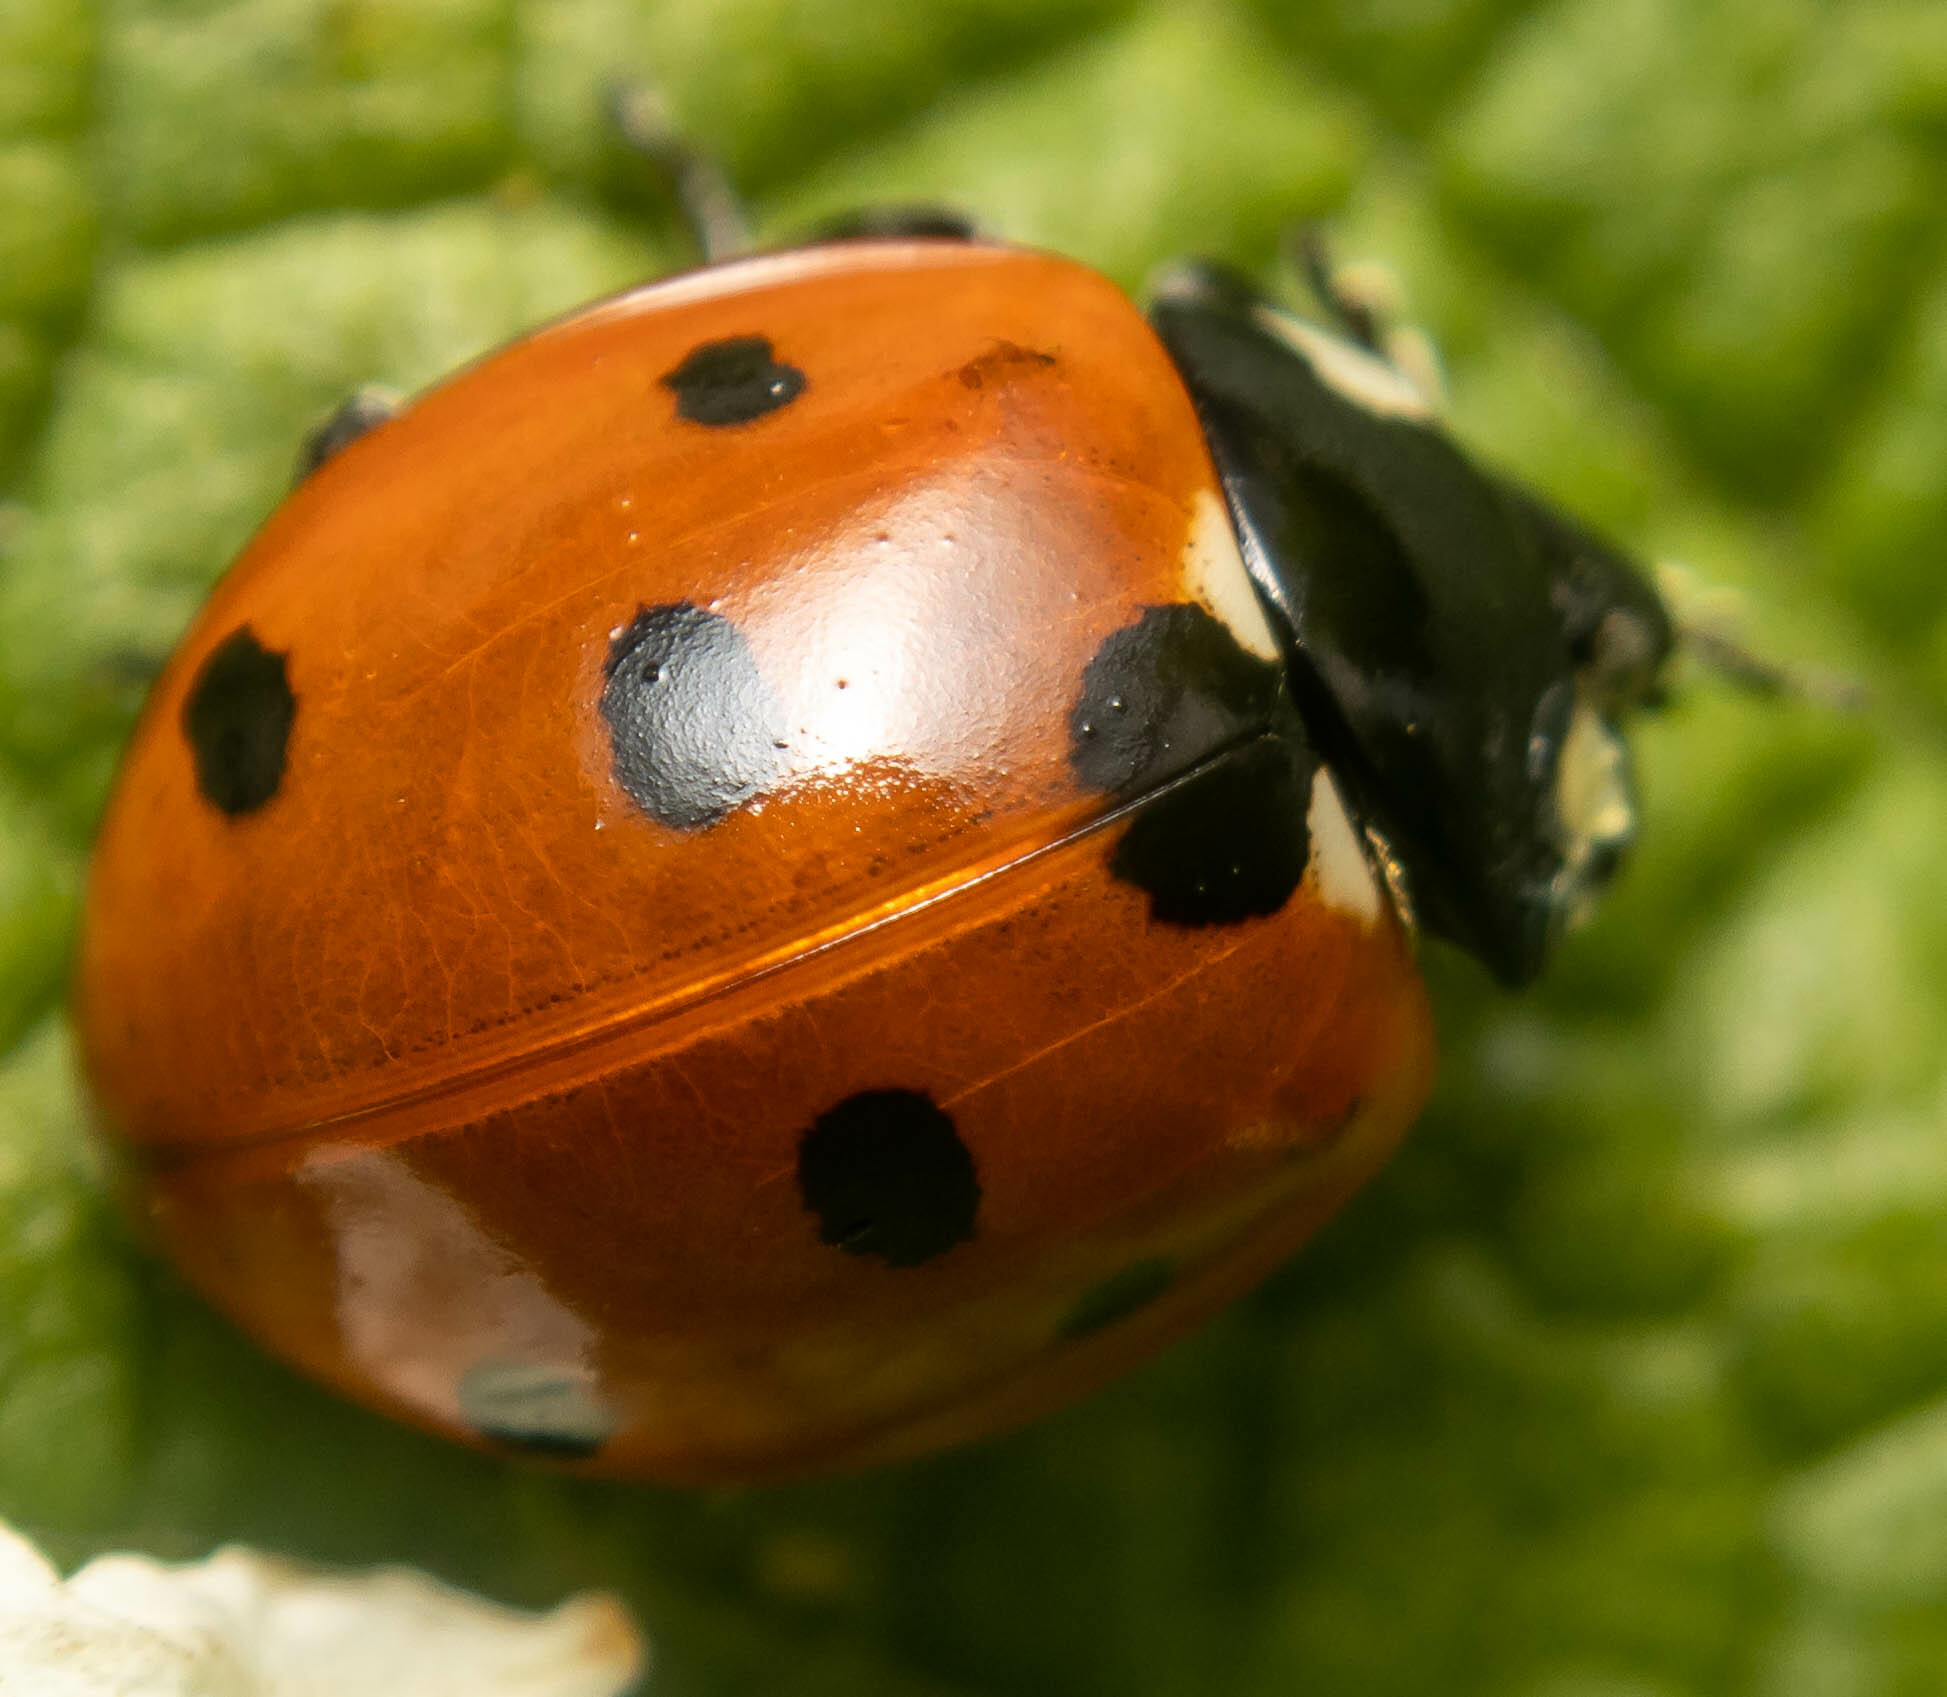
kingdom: Animalia
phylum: Arthropoda
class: Insecta
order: Coleoptera
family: Coccinellidae
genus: Coccinella
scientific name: Coccinella septempunctata
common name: Sevenspotted lady beetle
